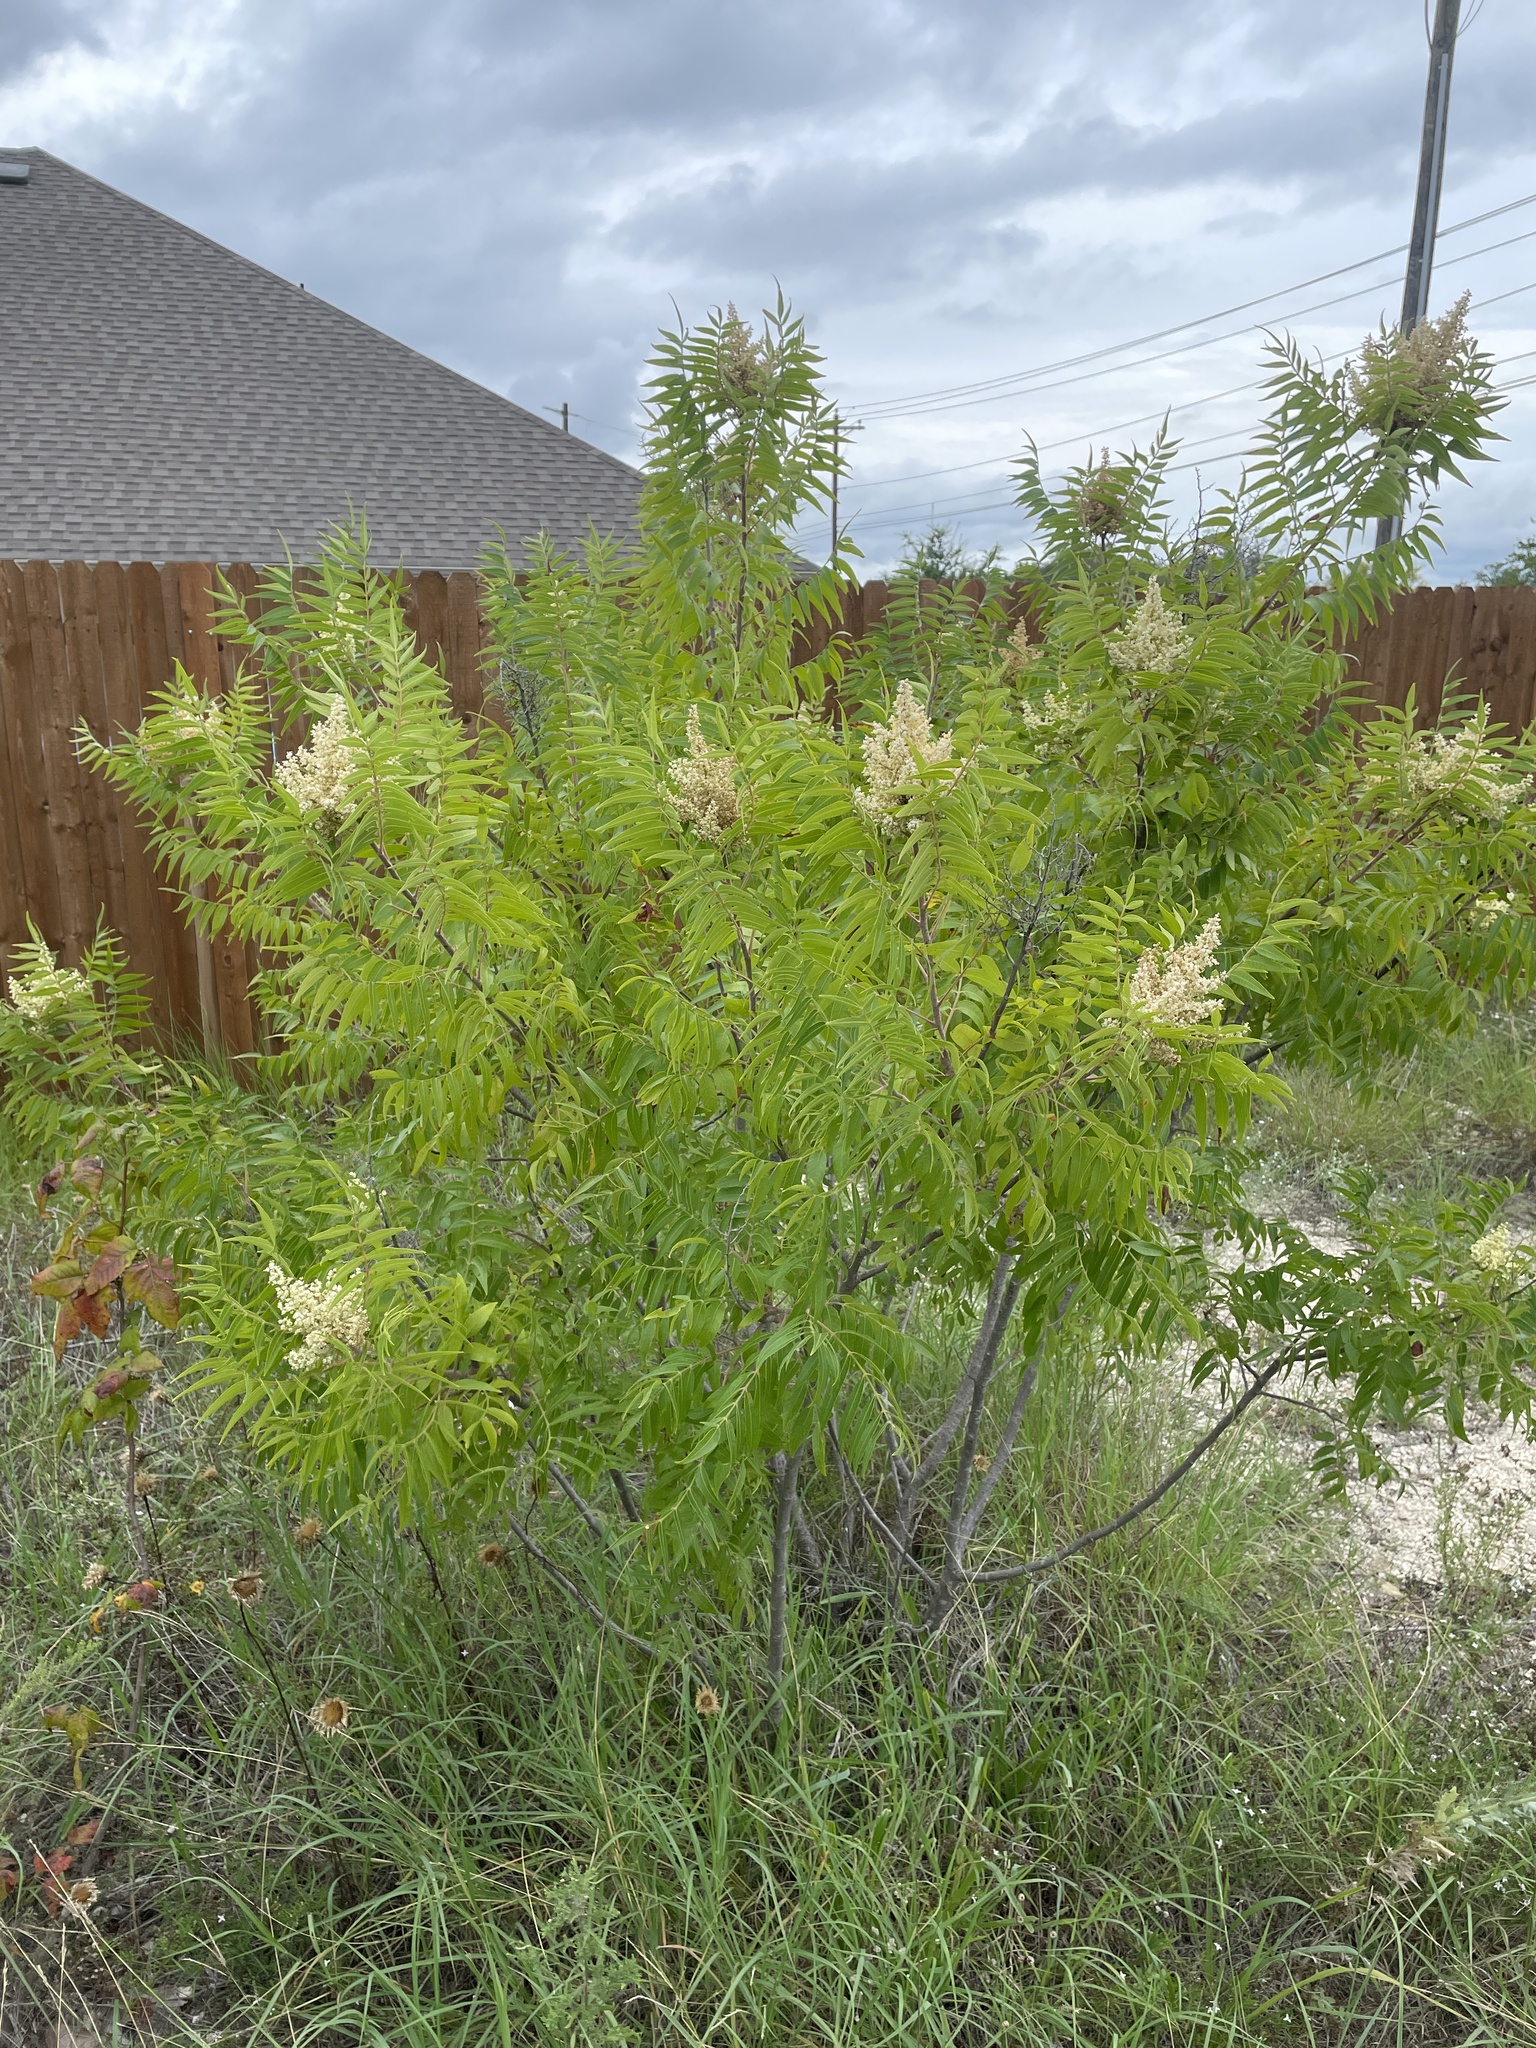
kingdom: Plantae
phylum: Tracheophyta
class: Magnoliopsida
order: Sapindales
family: Anacardiaceae
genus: Rhus
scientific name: Rhus lanceolata
